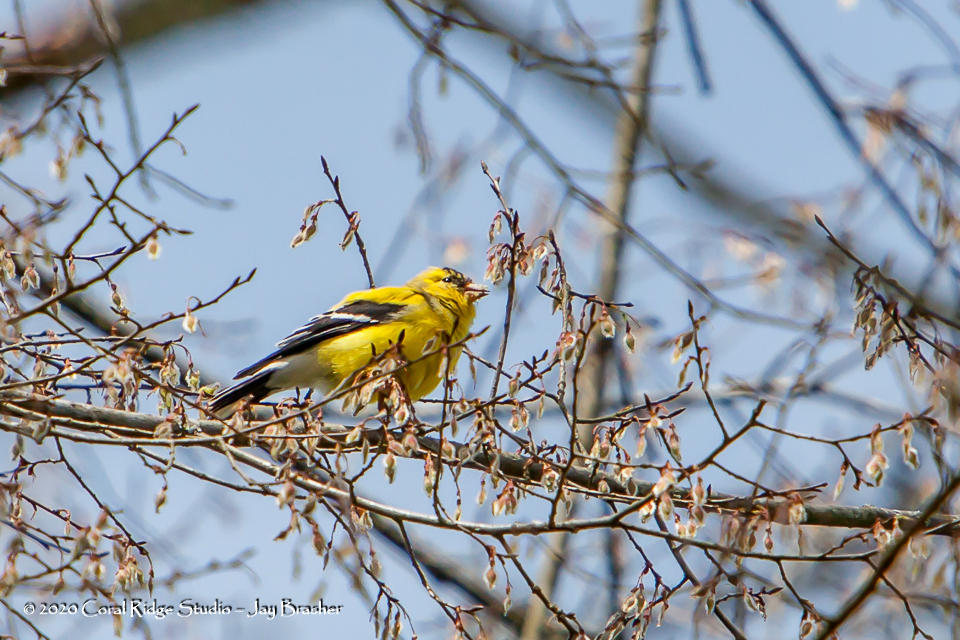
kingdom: Animalia
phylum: Chordata
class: Aves
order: Passeriformes
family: Fringillidae
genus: Spinus
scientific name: Spinus tristis
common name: American goldfinch
